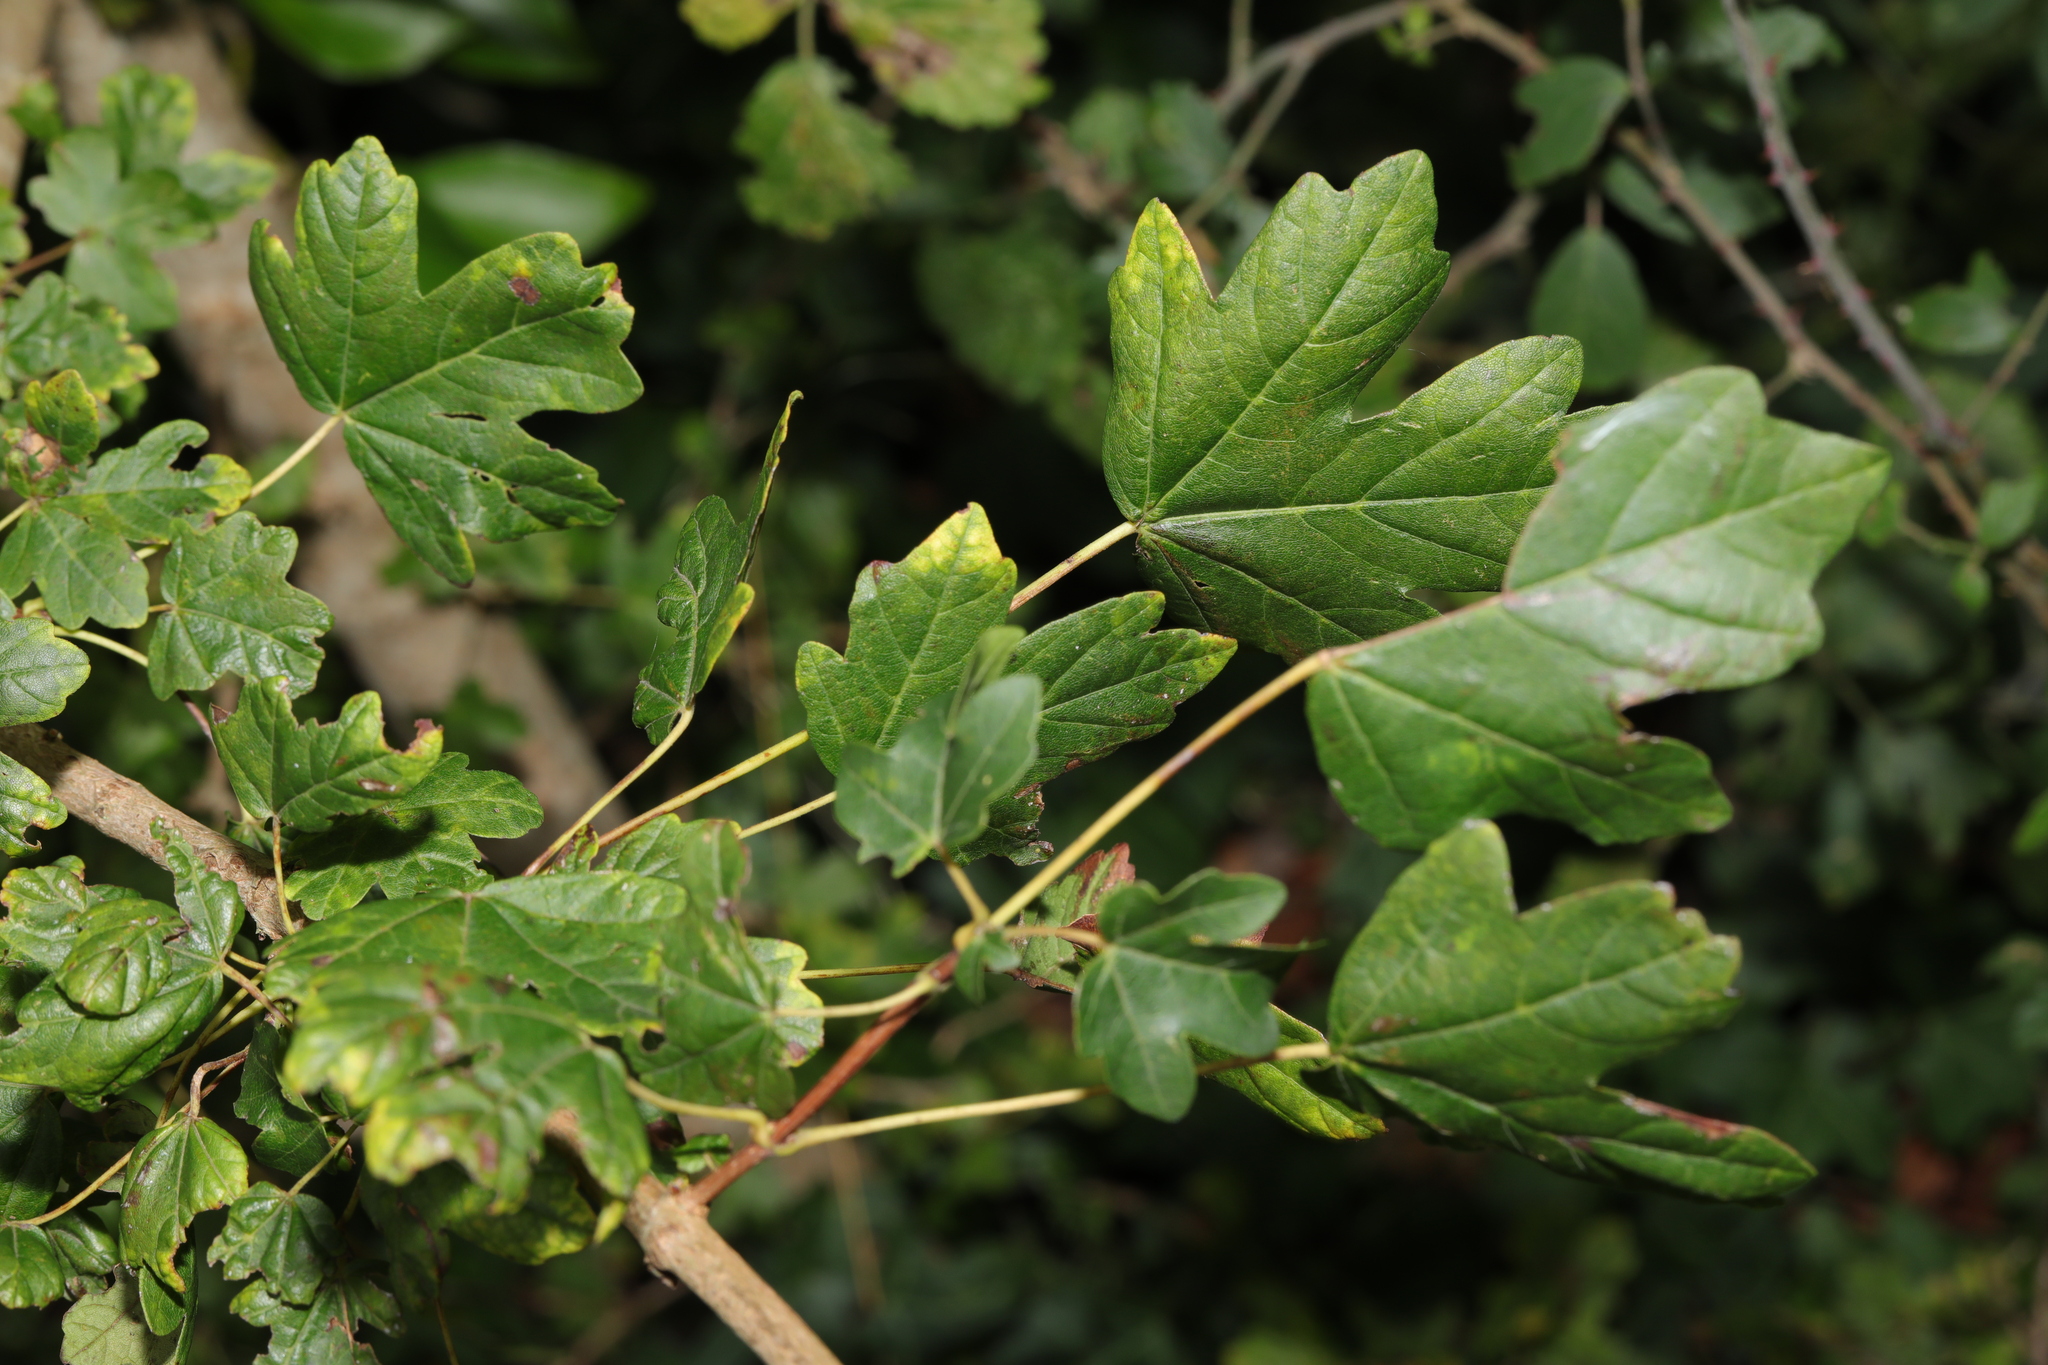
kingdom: Plantae
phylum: Tracheophyta
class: Magnoliopsida
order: Sapindales
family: Sapindaceae
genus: Acer
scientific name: Acer campestre
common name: Field maple
